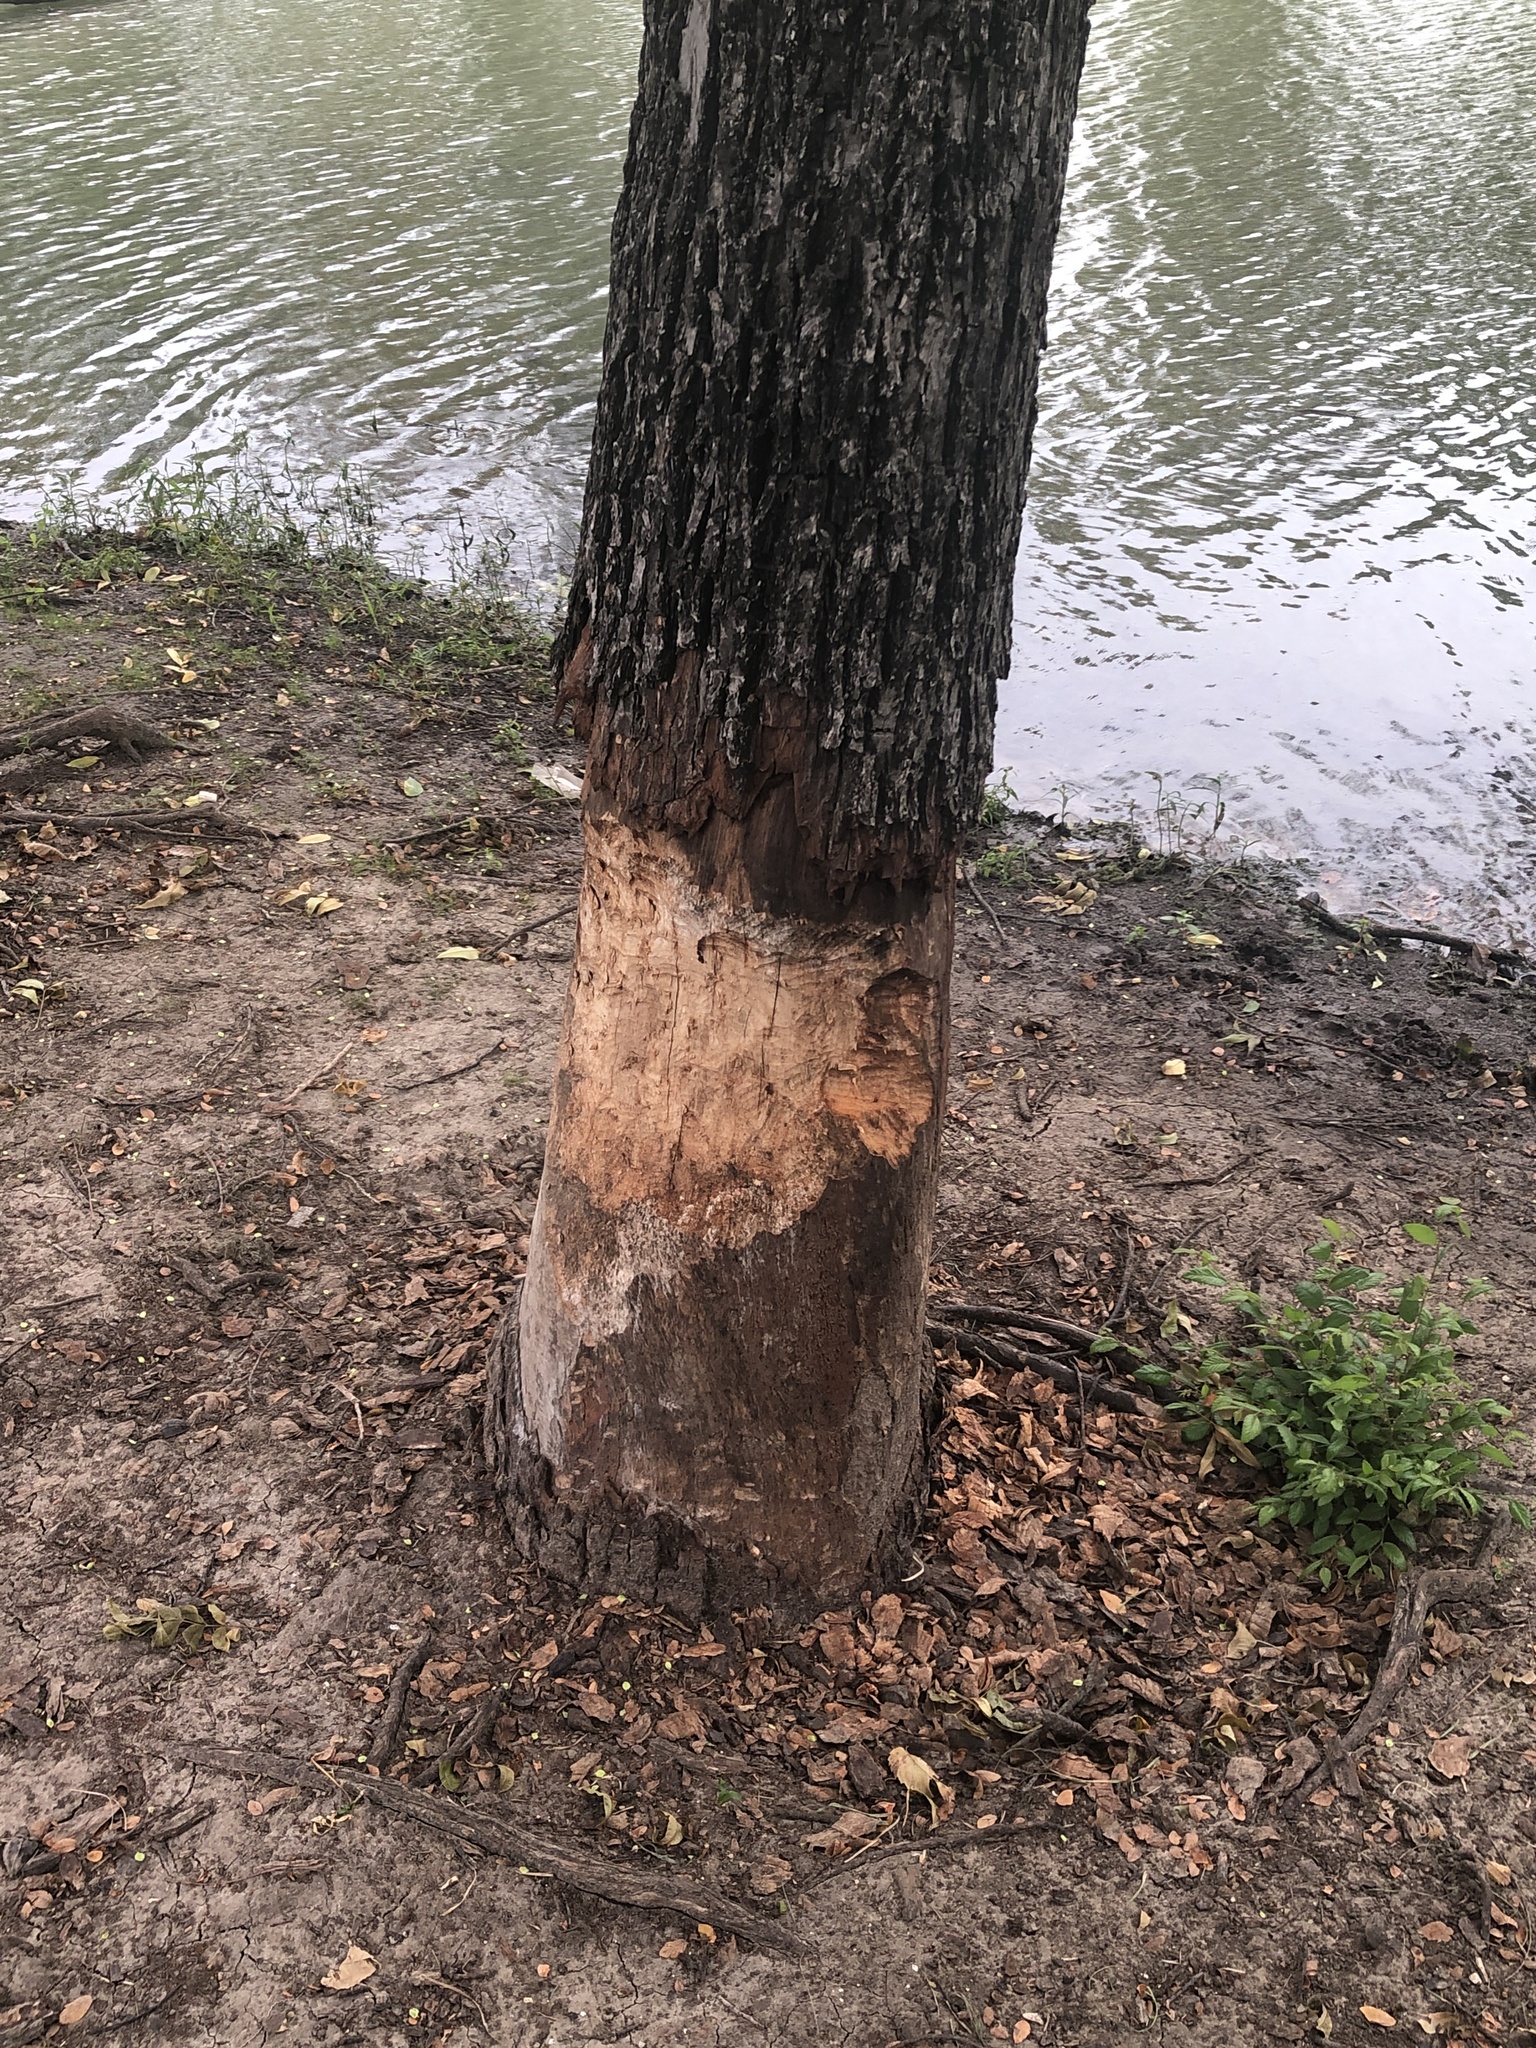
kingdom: Animalia
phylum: Chordata
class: Mammalia
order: Rodentia
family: Castoridae
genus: Castor
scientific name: Castor canadensis
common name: American beaver
